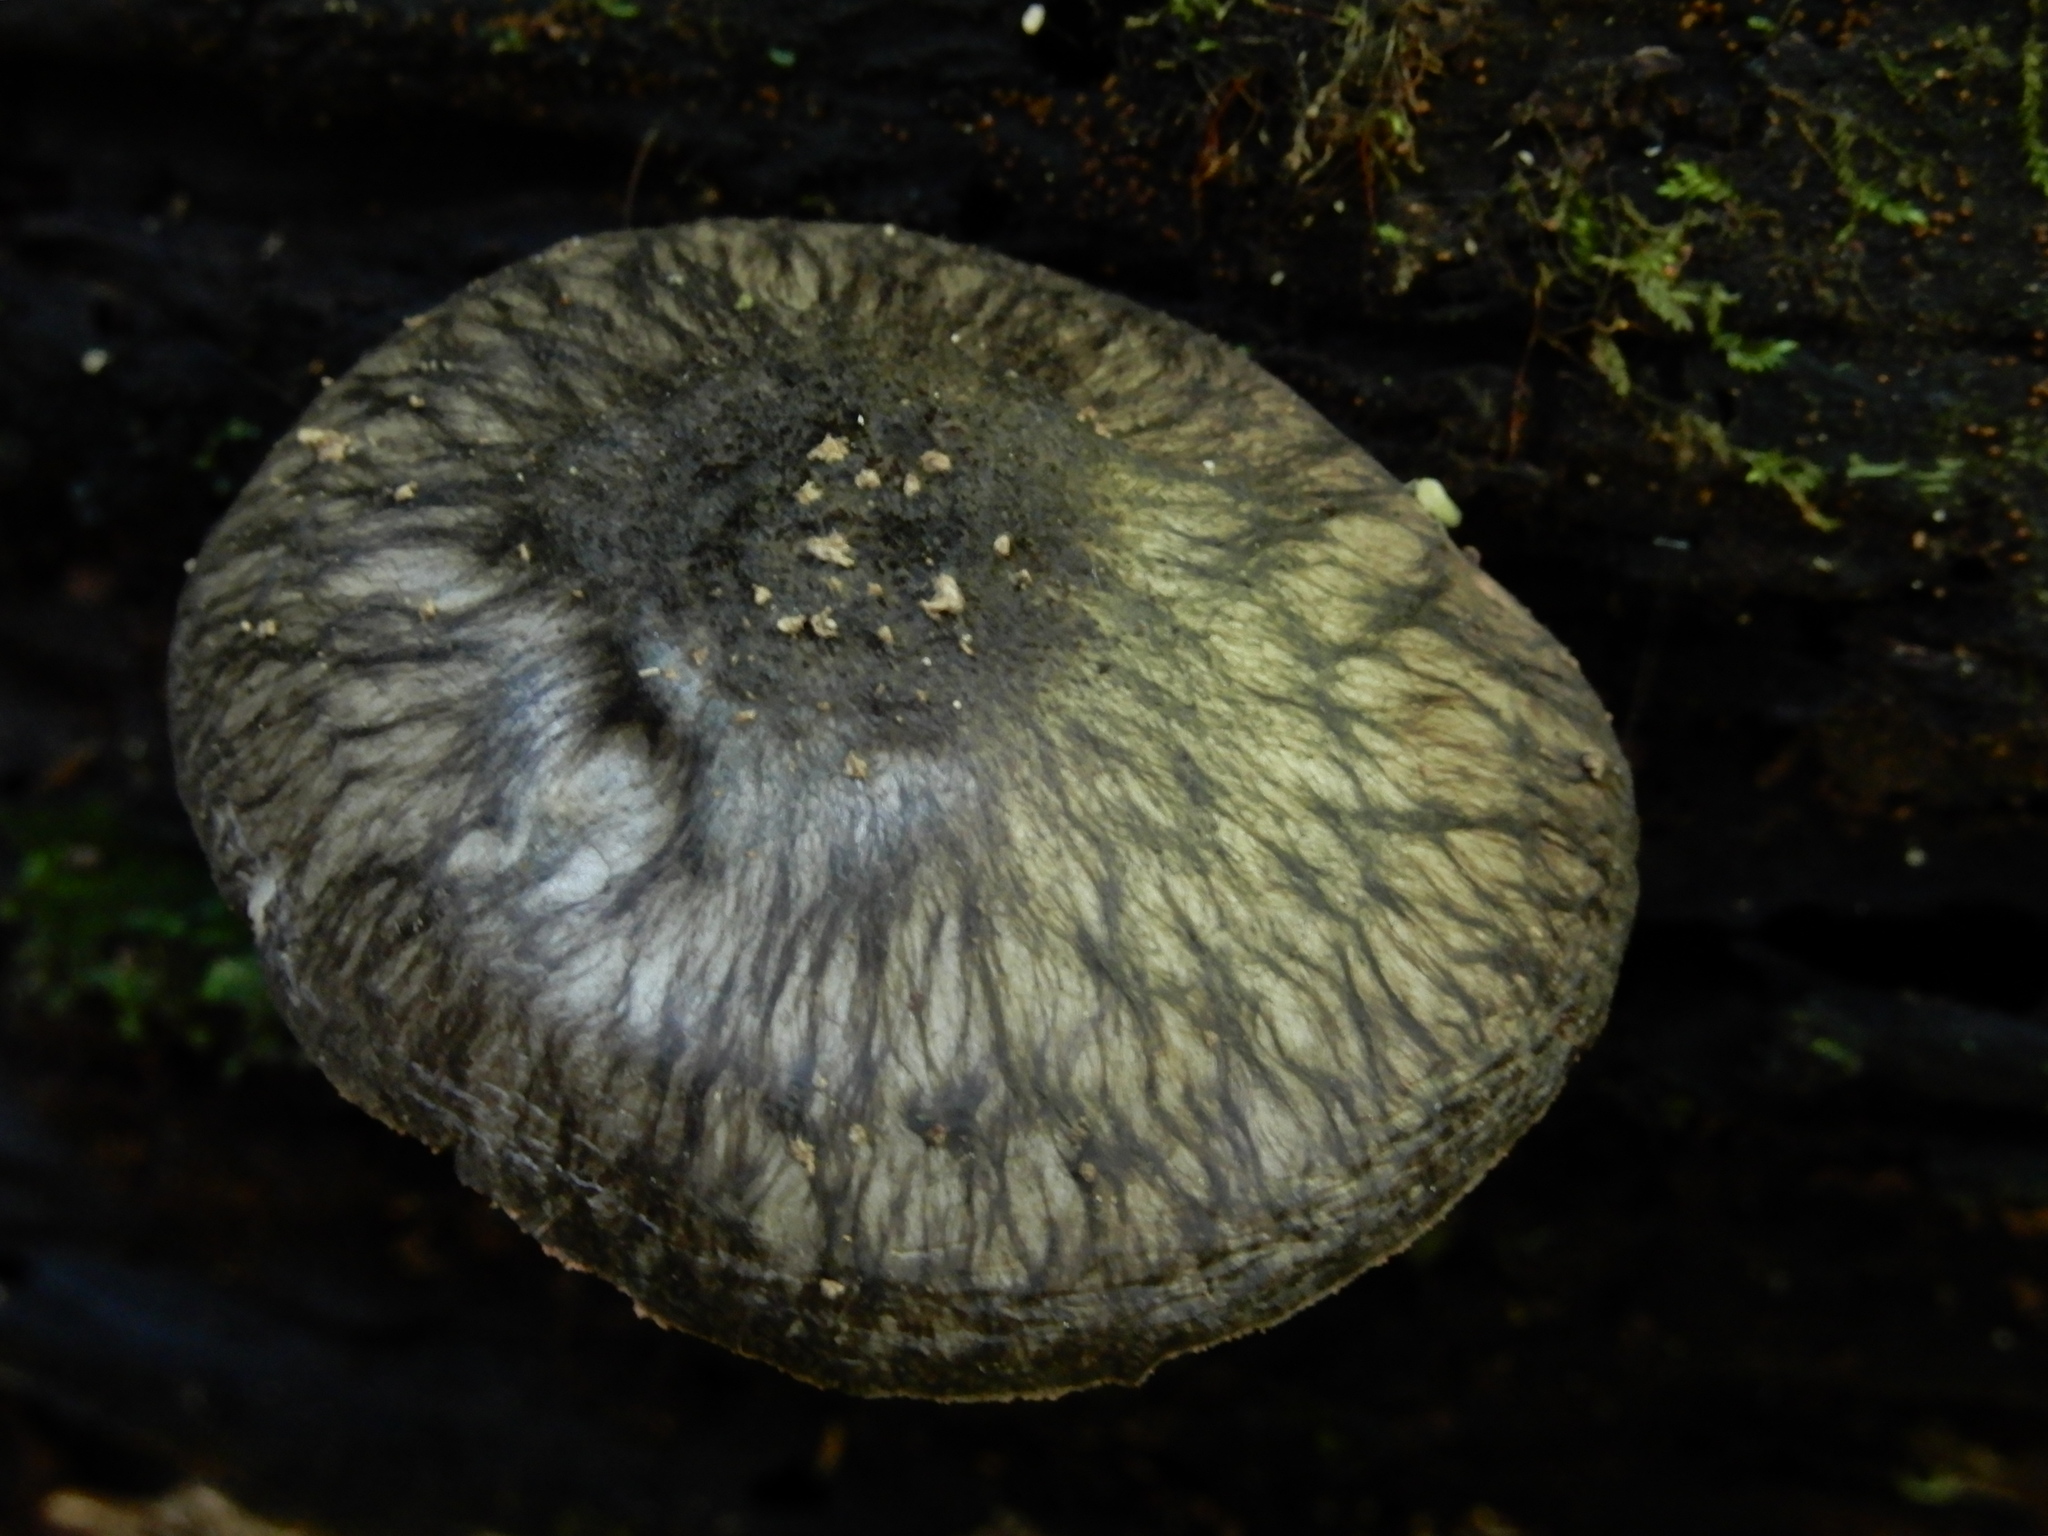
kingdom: Fungi
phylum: Basidiomycota
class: Agaricomycetes
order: Agaricales
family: Pluteaceae
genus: Pluteus
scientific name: Pluteus velutinornatus
